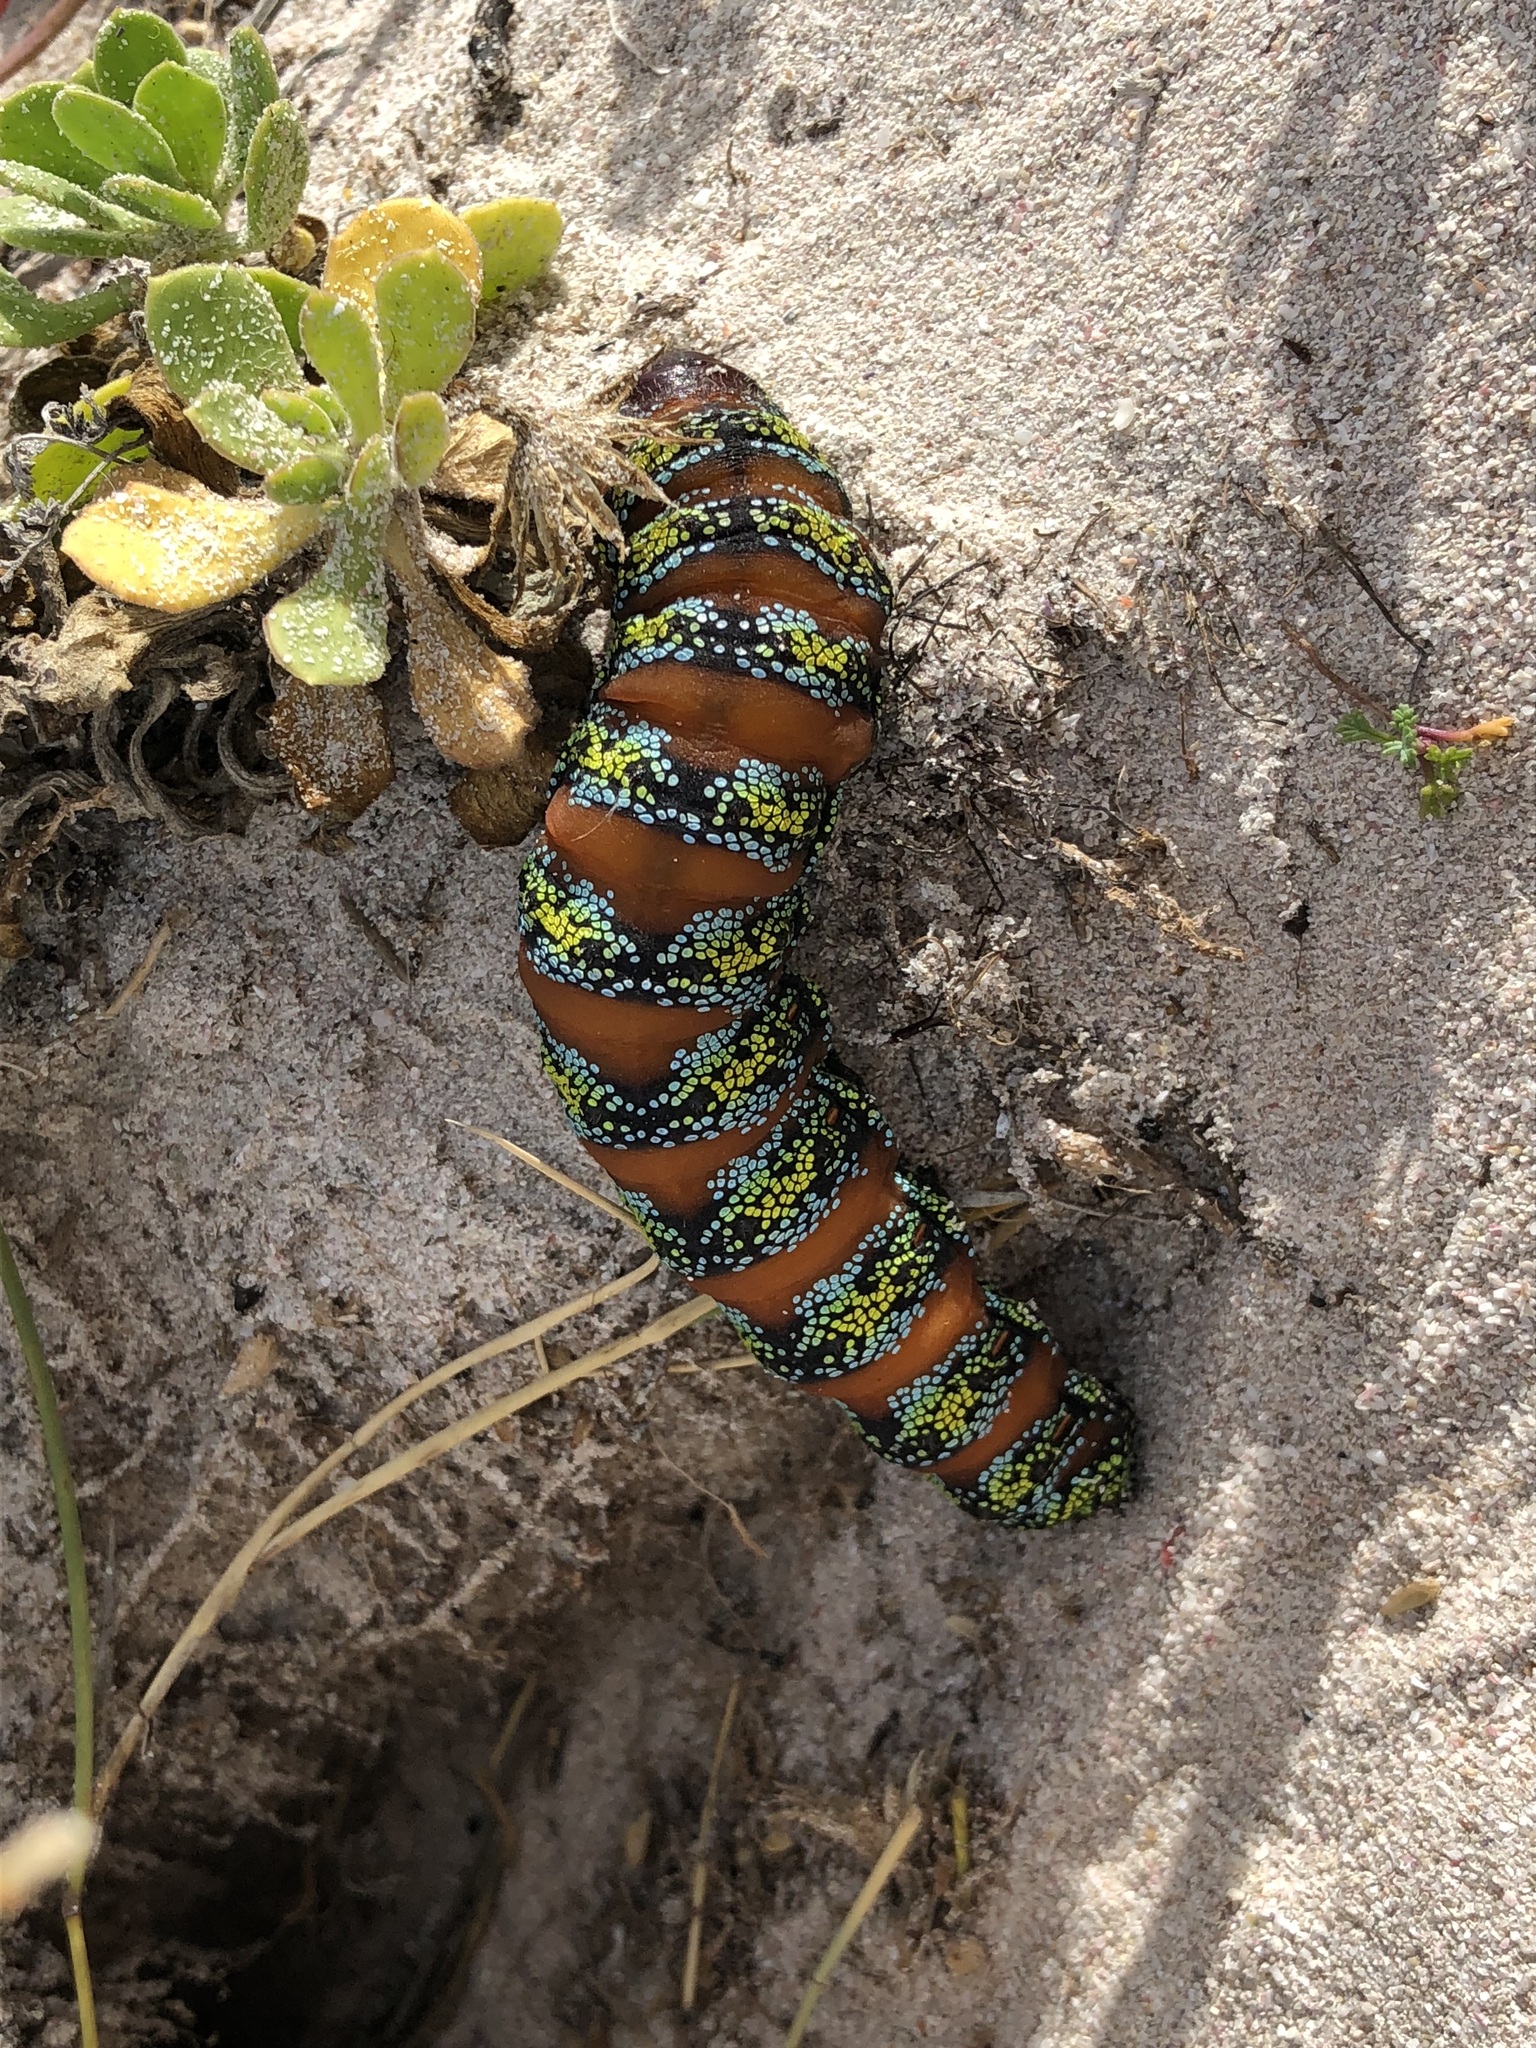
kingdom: Animalia
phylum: Arthropoda
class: Insecta
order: Lepidoptera
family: Saturniidae
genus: Nudaurelia
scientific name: Nudaurelia cytherea
